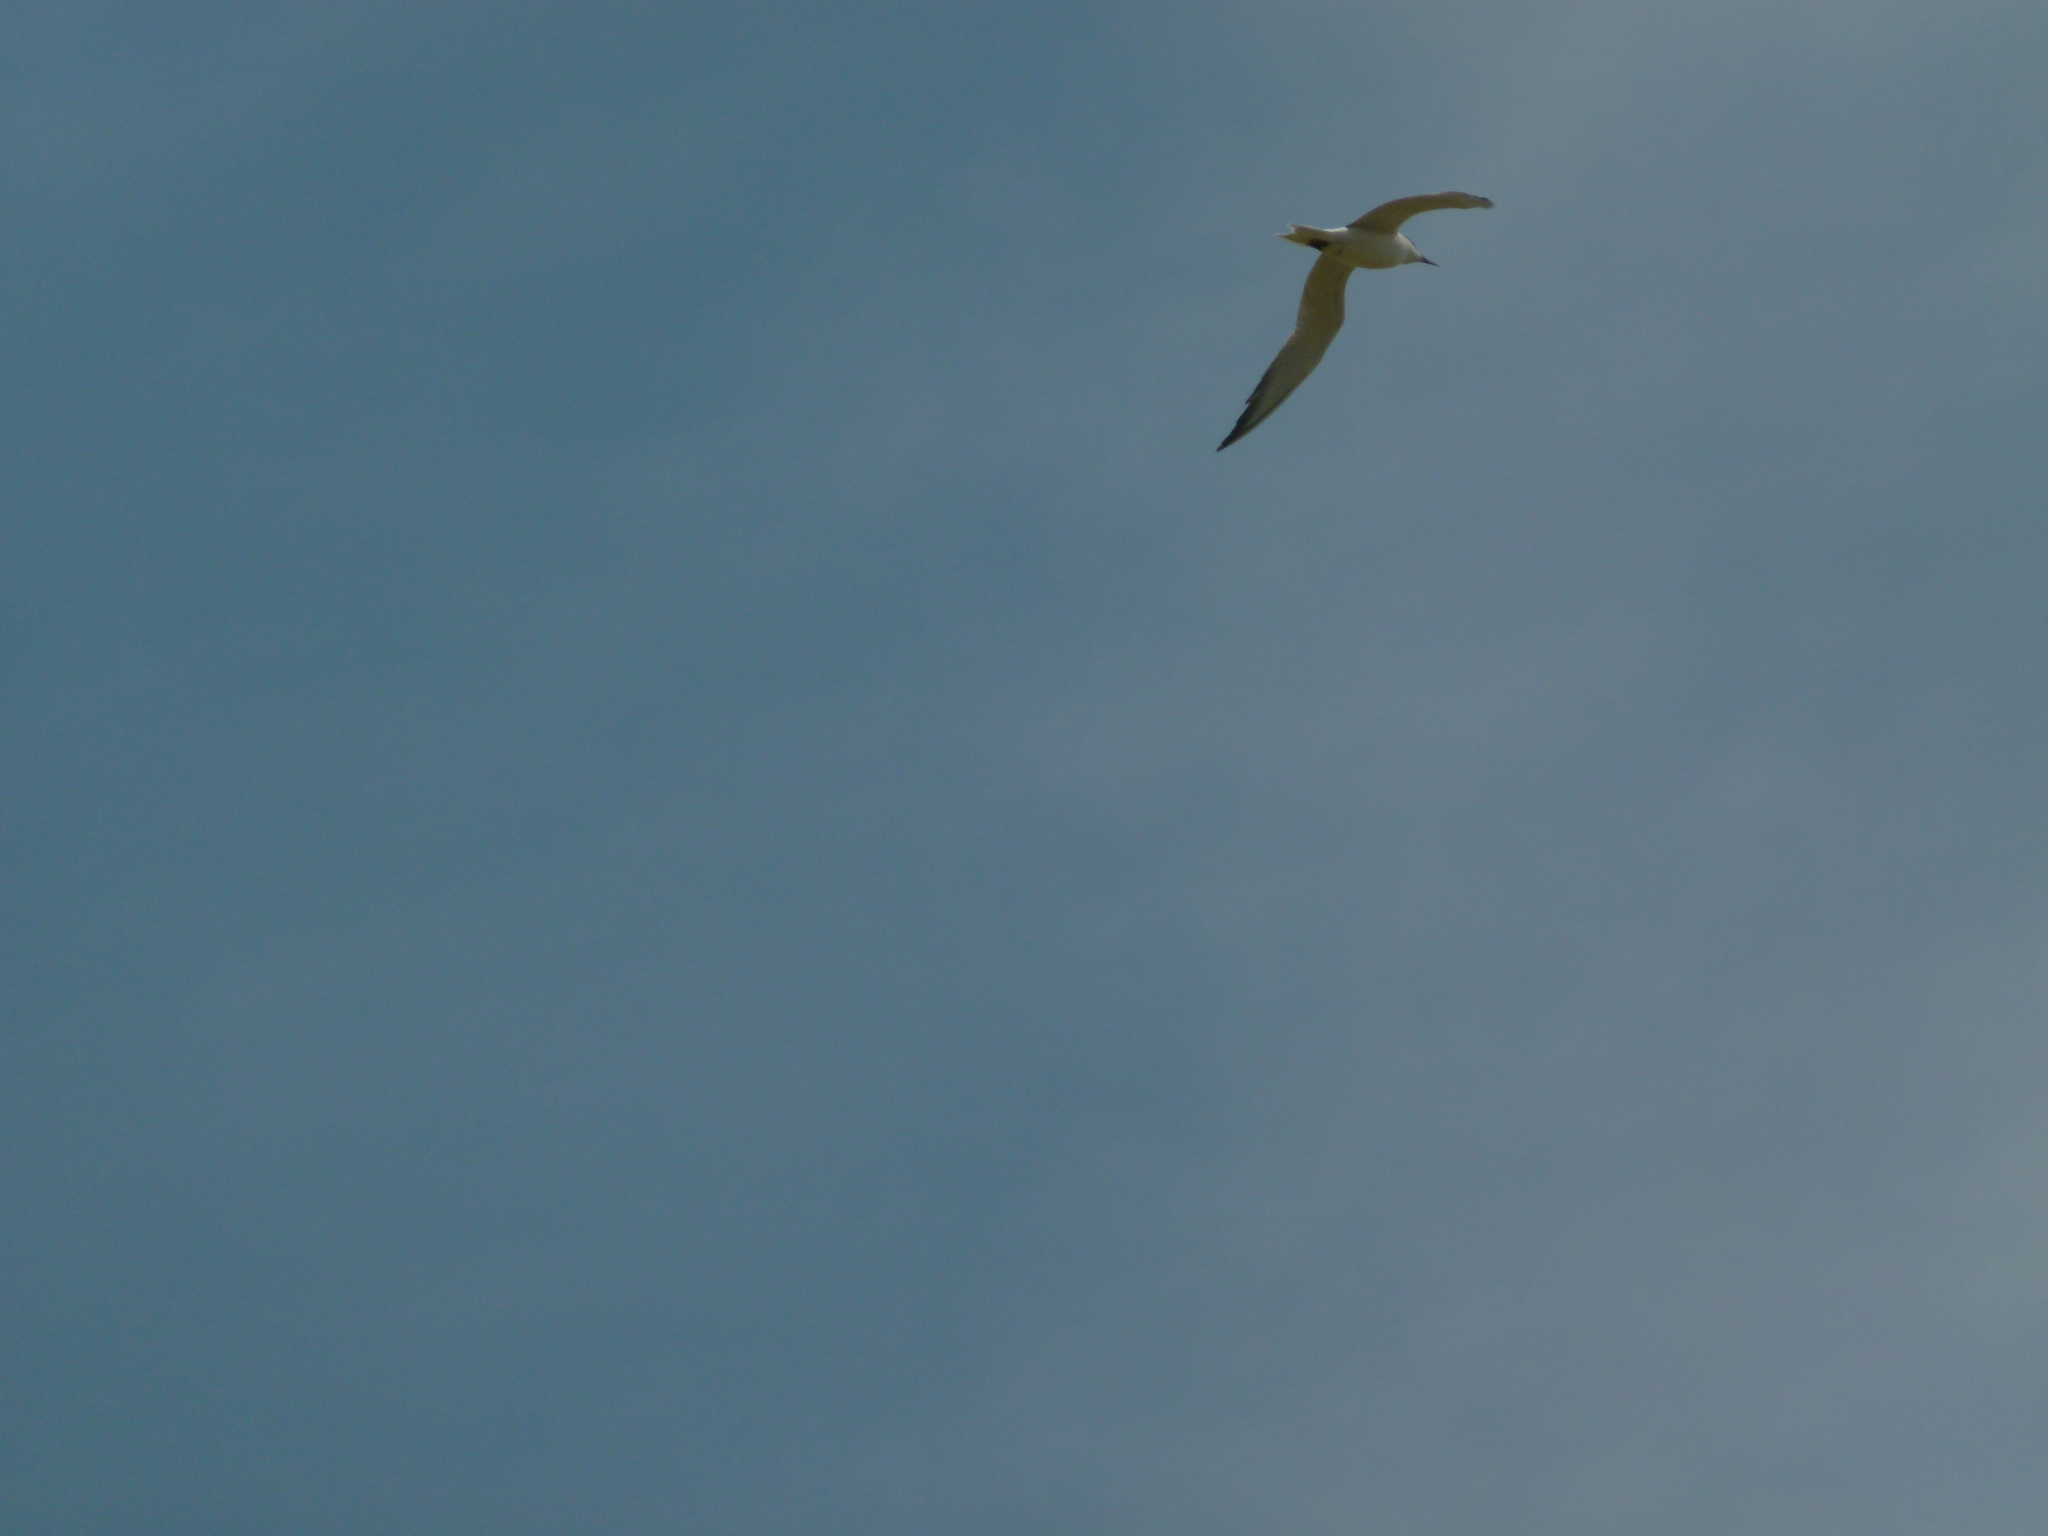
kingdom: Animalia
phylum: Chordata
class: Aves
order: Charadriiformes
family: Laridae
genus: Gelochelidon
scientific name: Gelochelidon nilotica
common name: Gull-billed tern
